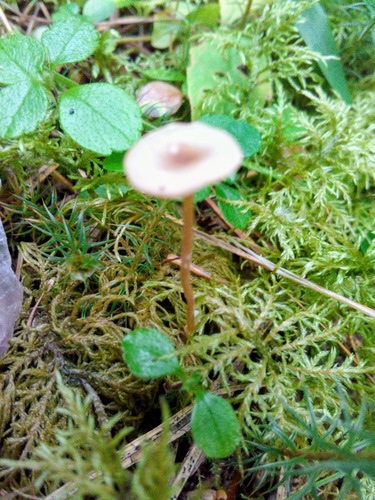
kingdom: Fungi
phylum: Basidiomycota
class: Agaricomycetes
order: Agaricales
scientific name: Agaricales
